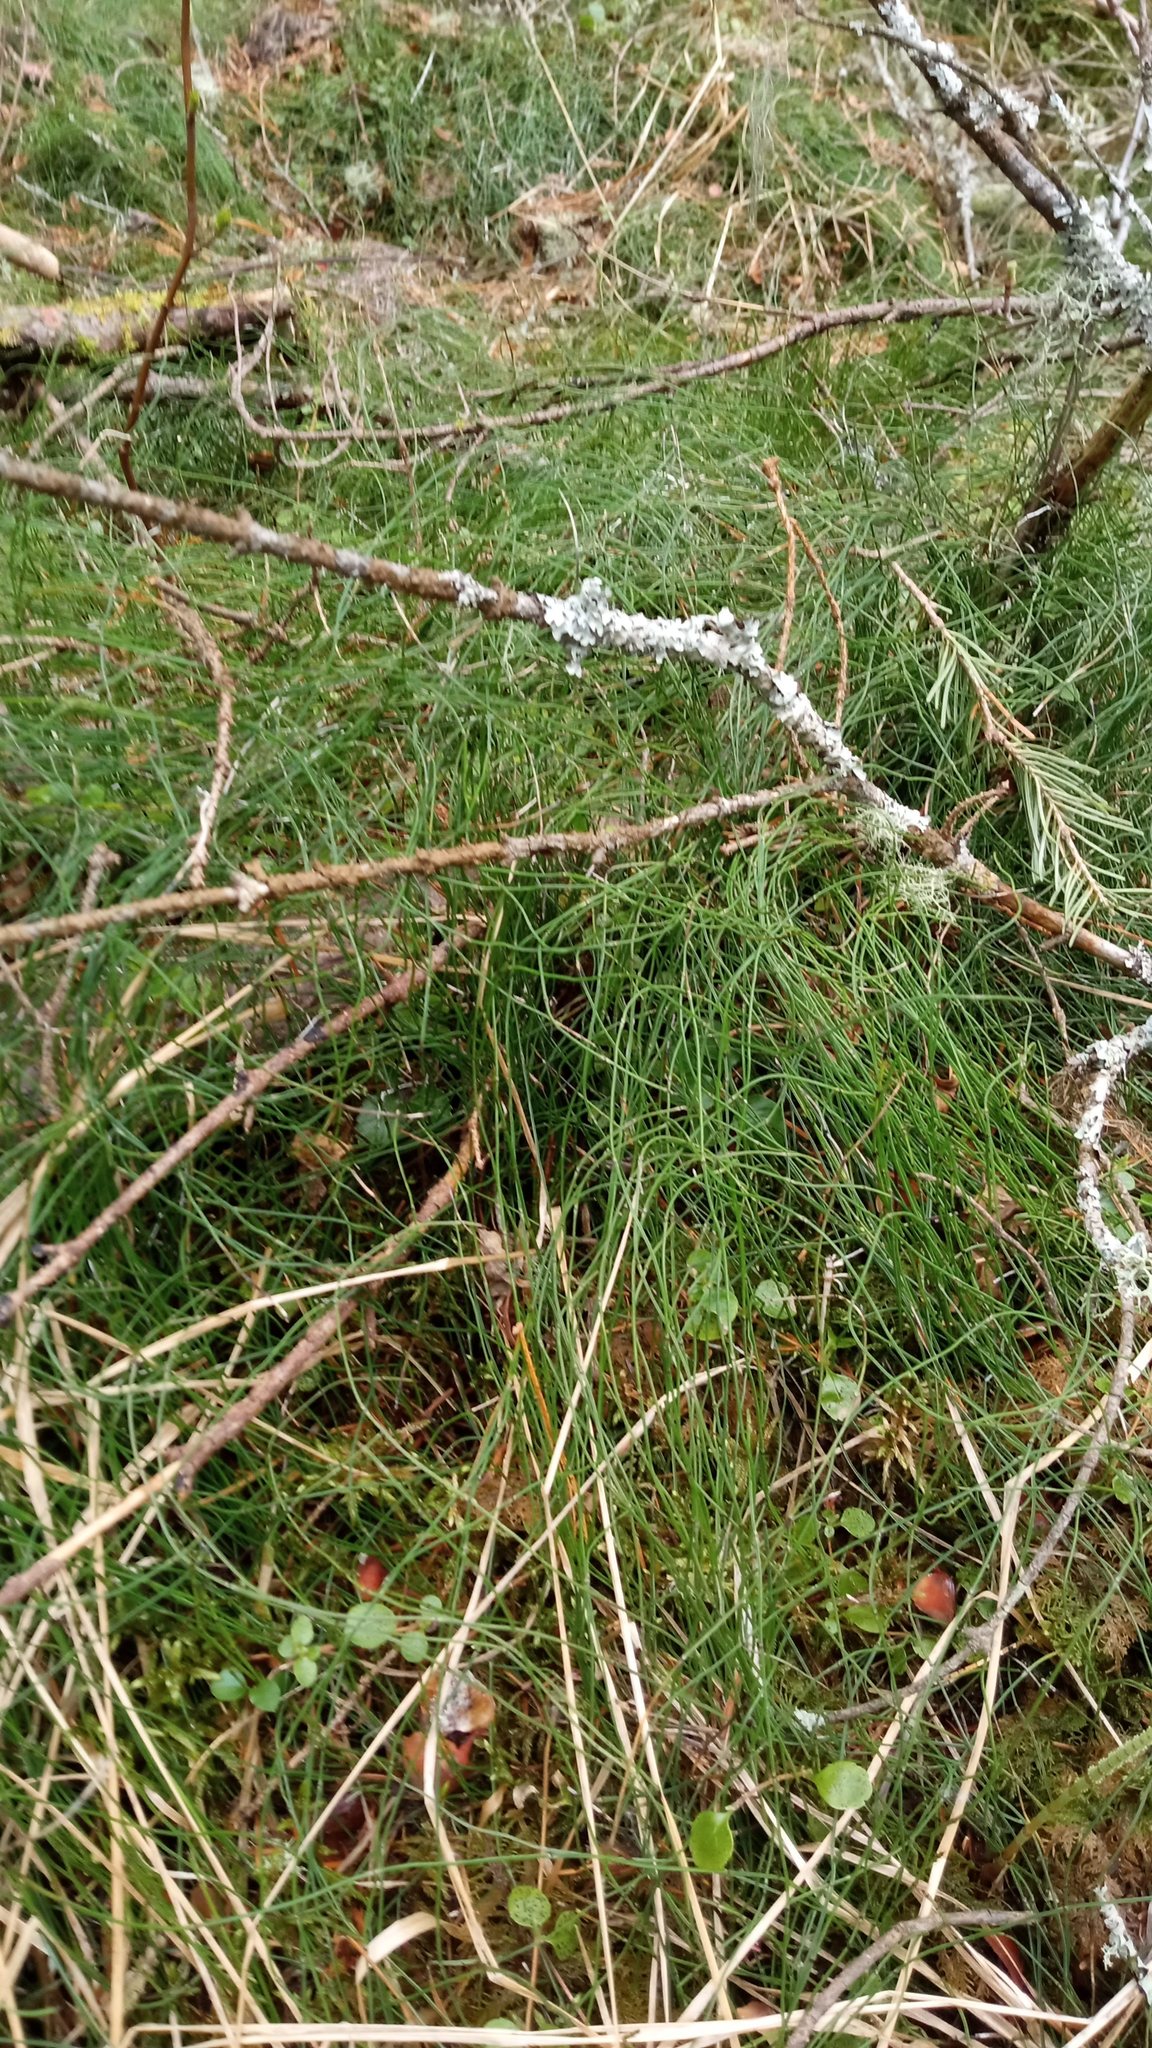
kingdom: Plantae
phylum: Tracheophyta
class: Polypodiopsida
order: Equisetales
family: Equisetaceae
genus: Equisetum
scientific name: Equisetum scirpoides
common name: Delicate horsetail
